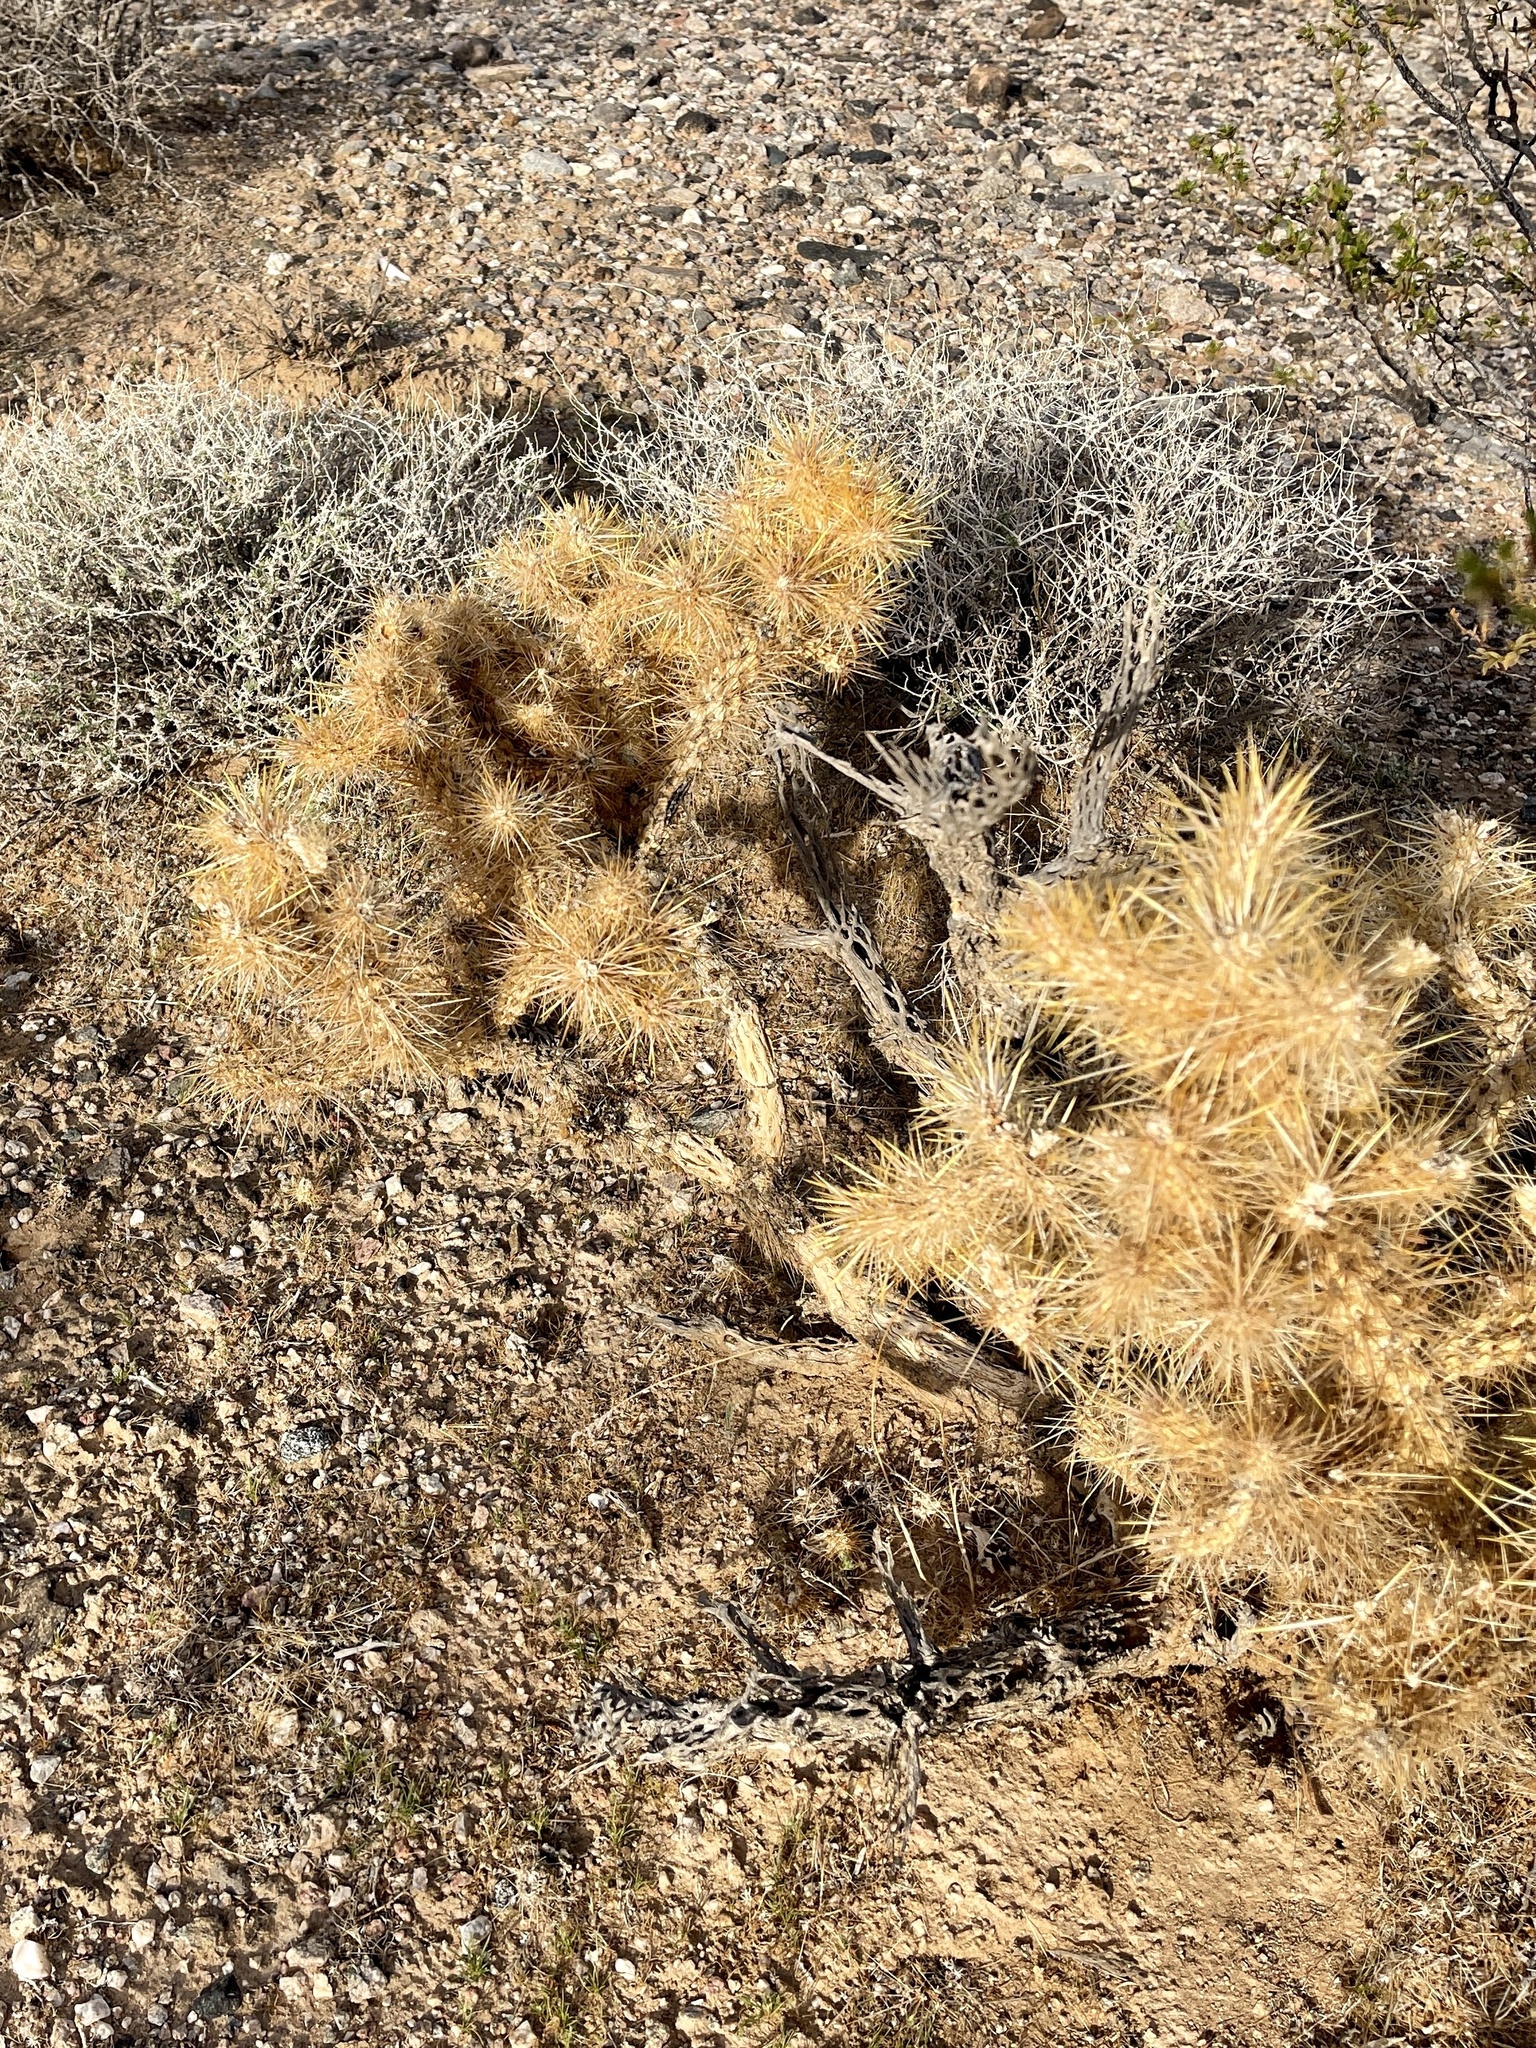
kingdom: Plantae
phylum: Tracheophyta
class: Magnoliopsida
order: Caryophyllales
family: Cactaceae
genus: Cylindropuntia
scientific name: Cylindropuntia echinocarpa
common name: Ground cholla
